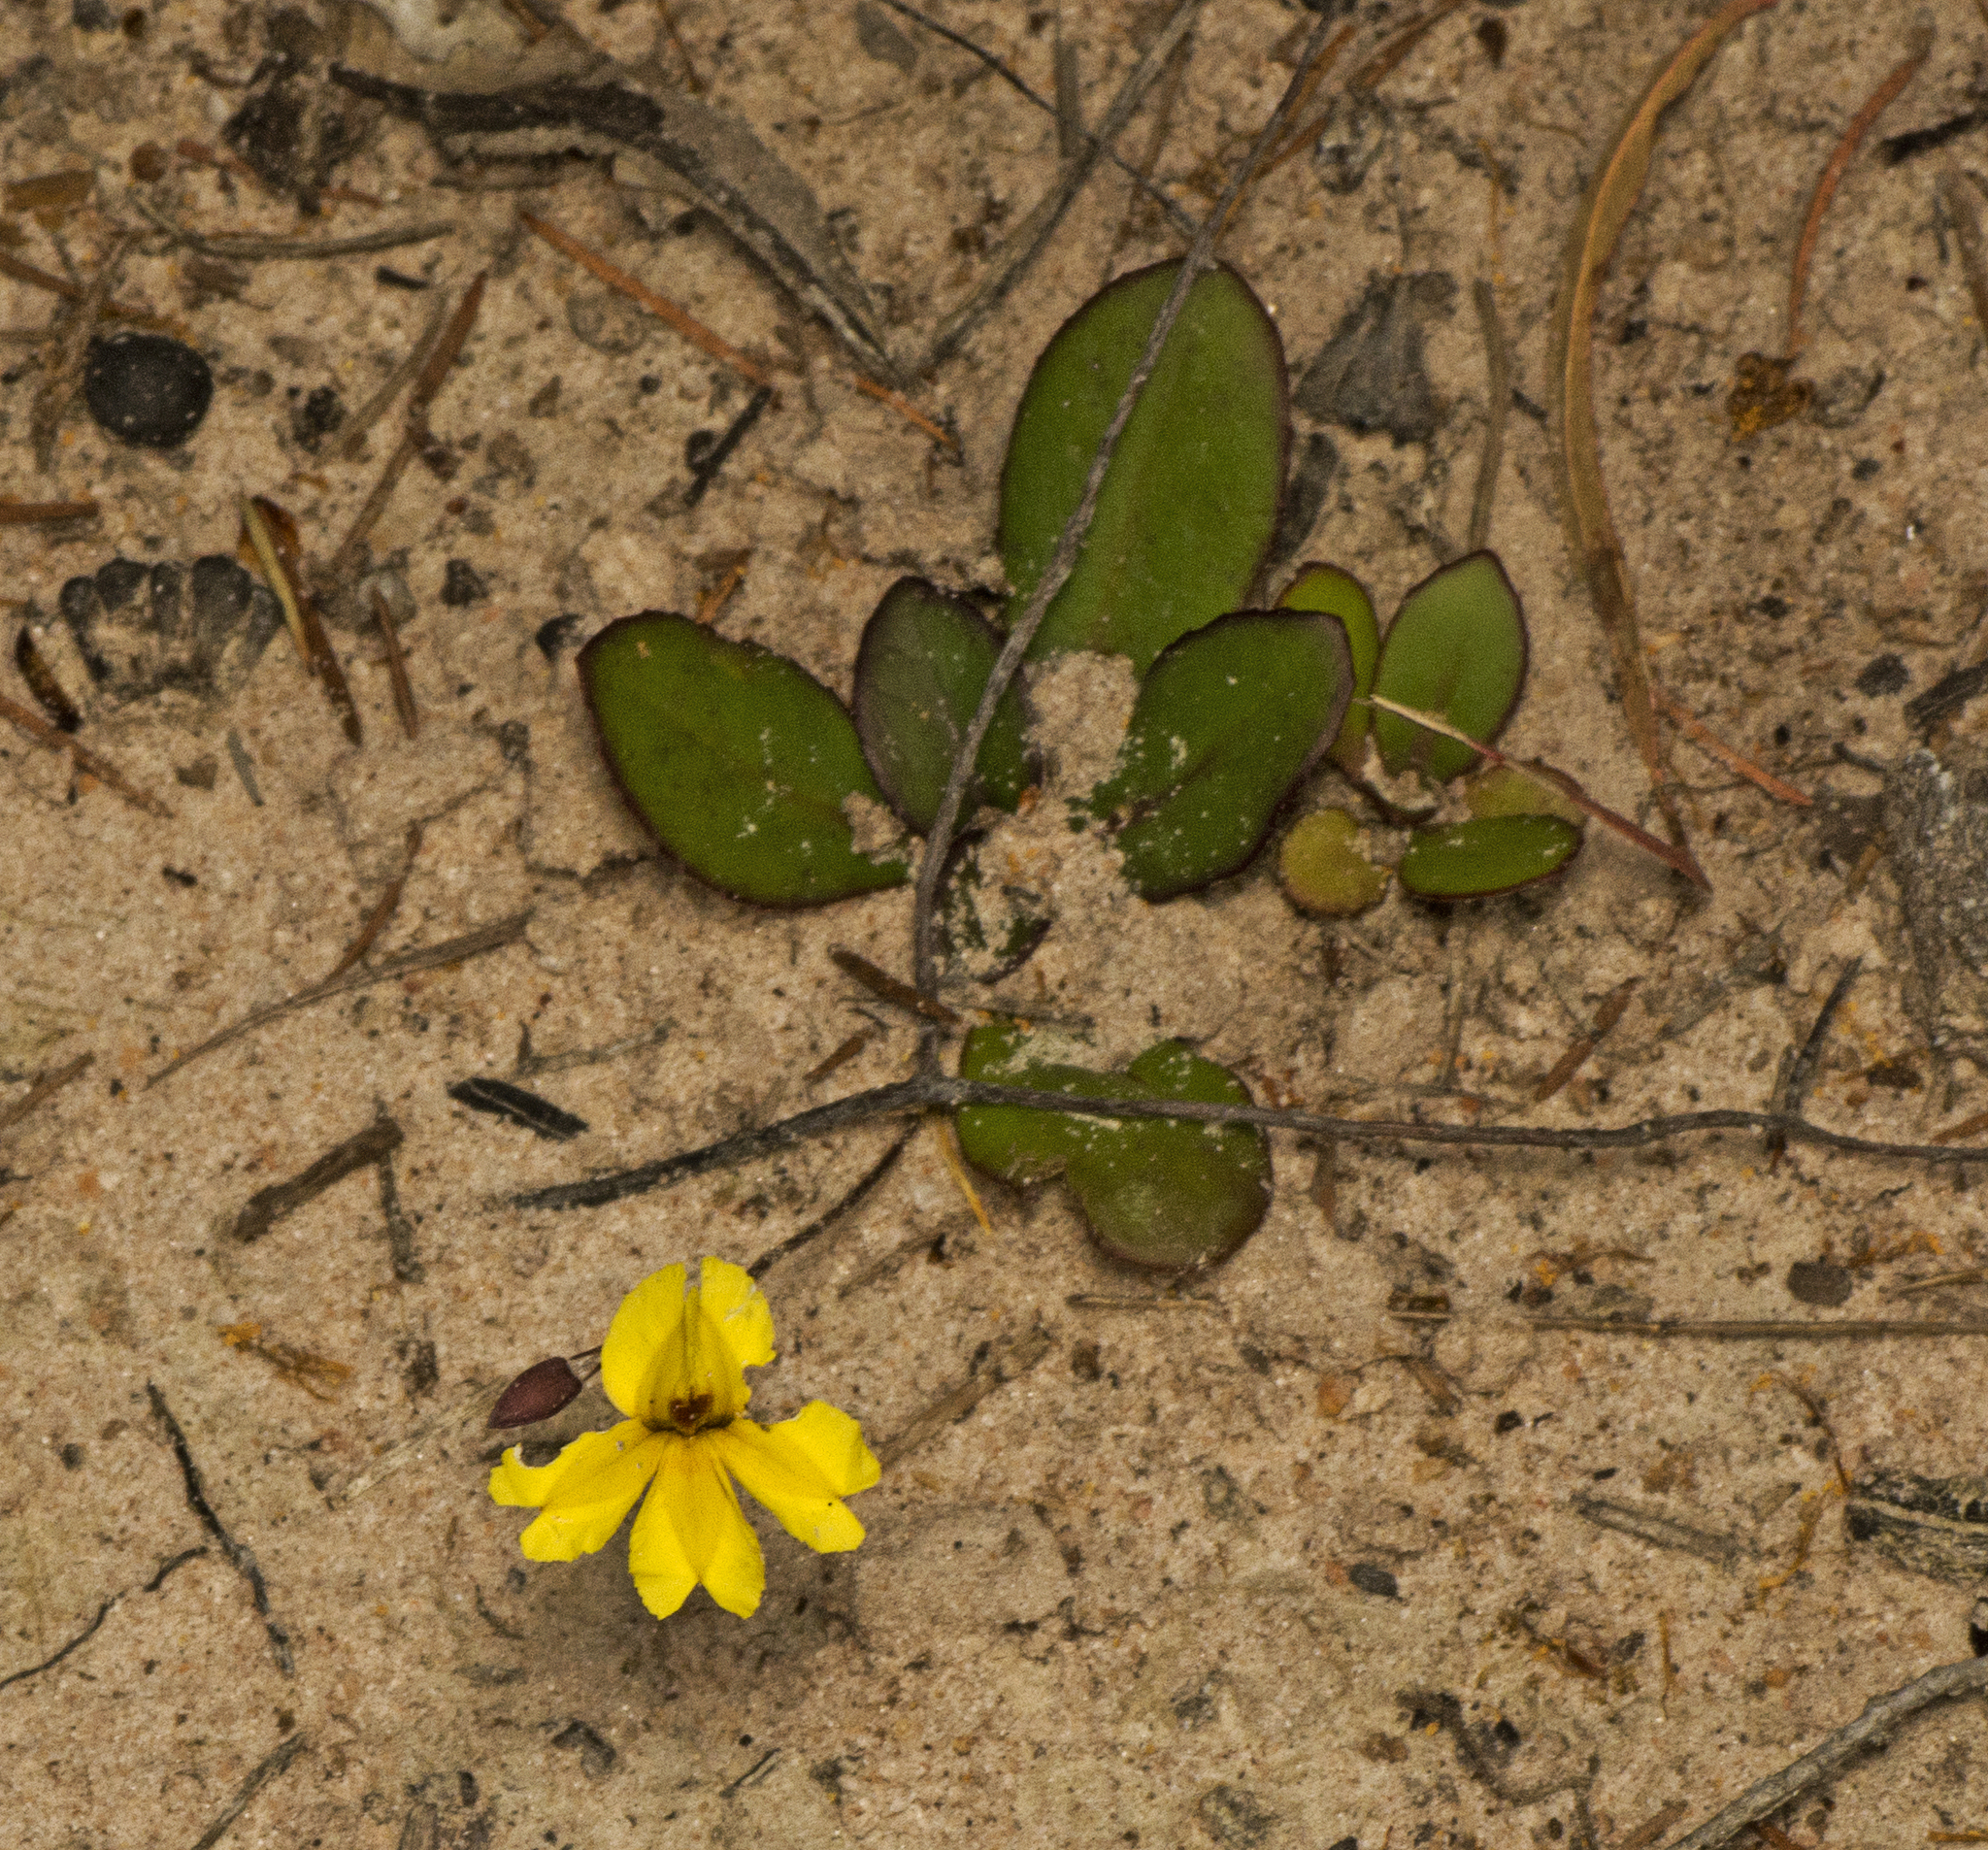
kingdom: Plantae
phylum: Tracheophyta
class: Magnoliopsida
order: Asterales
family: Goodeniaceae
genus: Goodenia
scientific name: Goodenia mystrophylla
